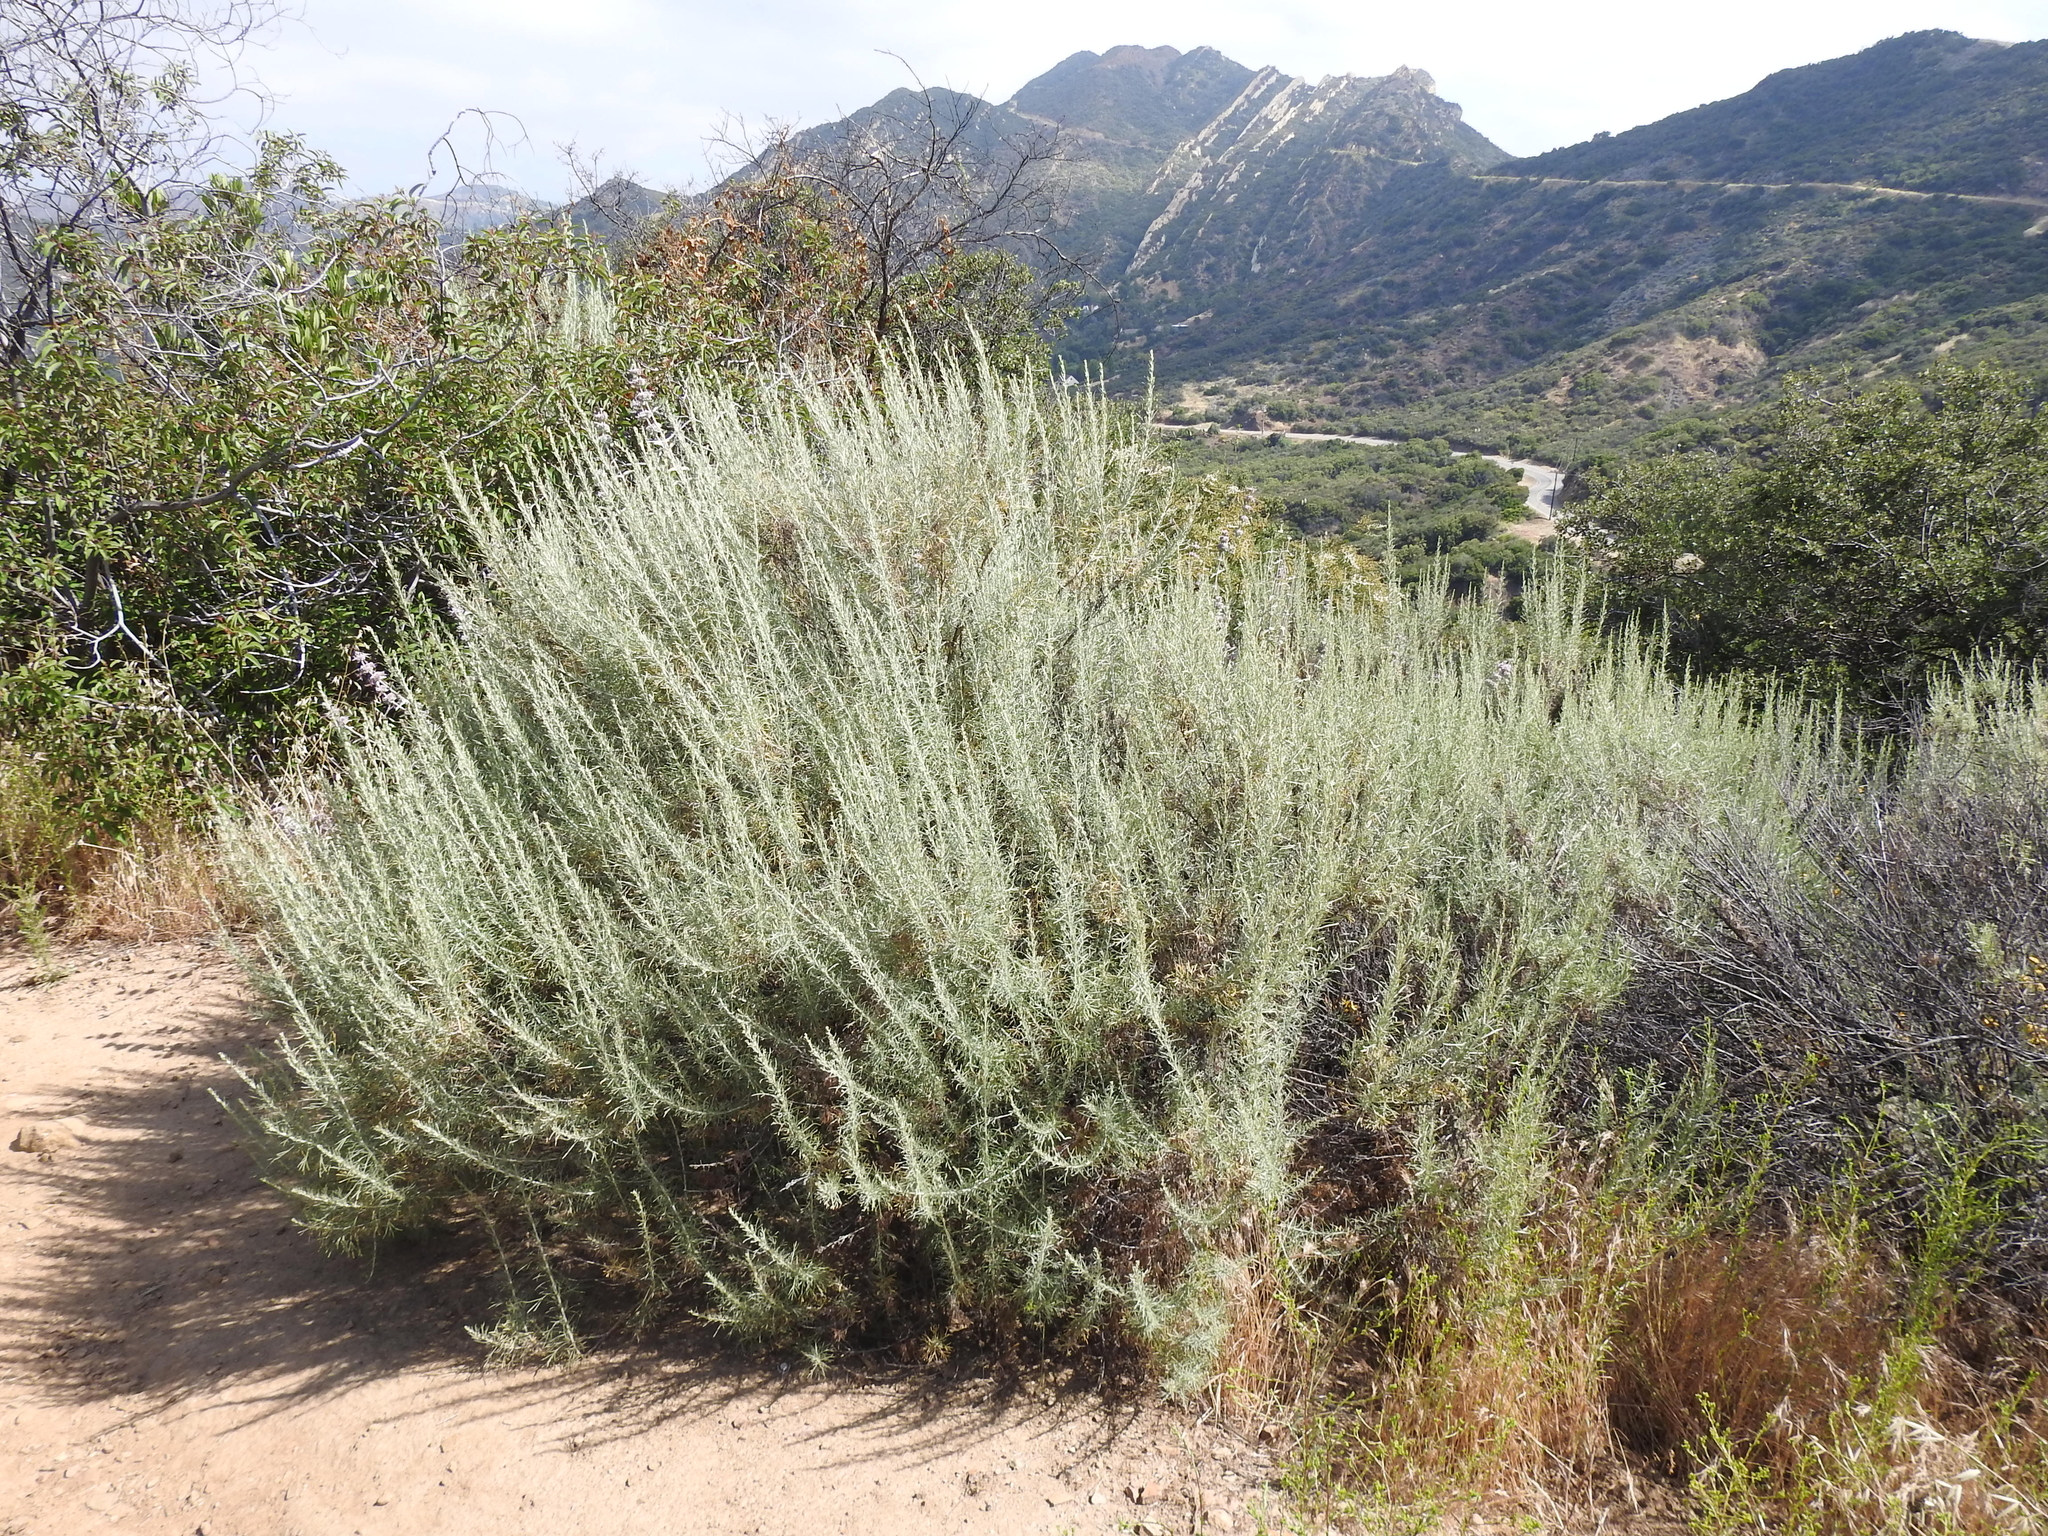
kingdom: Plantae
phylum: Tracheophyta
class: Magnoliopsida
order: Asterales
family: Asteraceae
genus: Artemisia
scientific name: Artemisia californica
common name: California sagebrush
